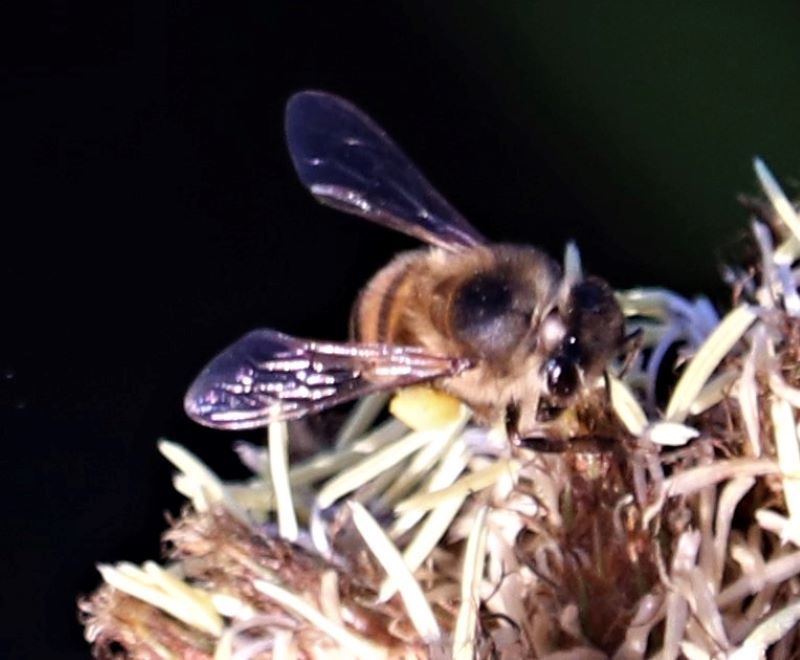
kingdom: Animalia
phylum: Arthropoda
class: Insecta
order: Hymenoptera
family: Apidae
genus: Apis
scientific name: Apis mellifera
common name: Honey bee
